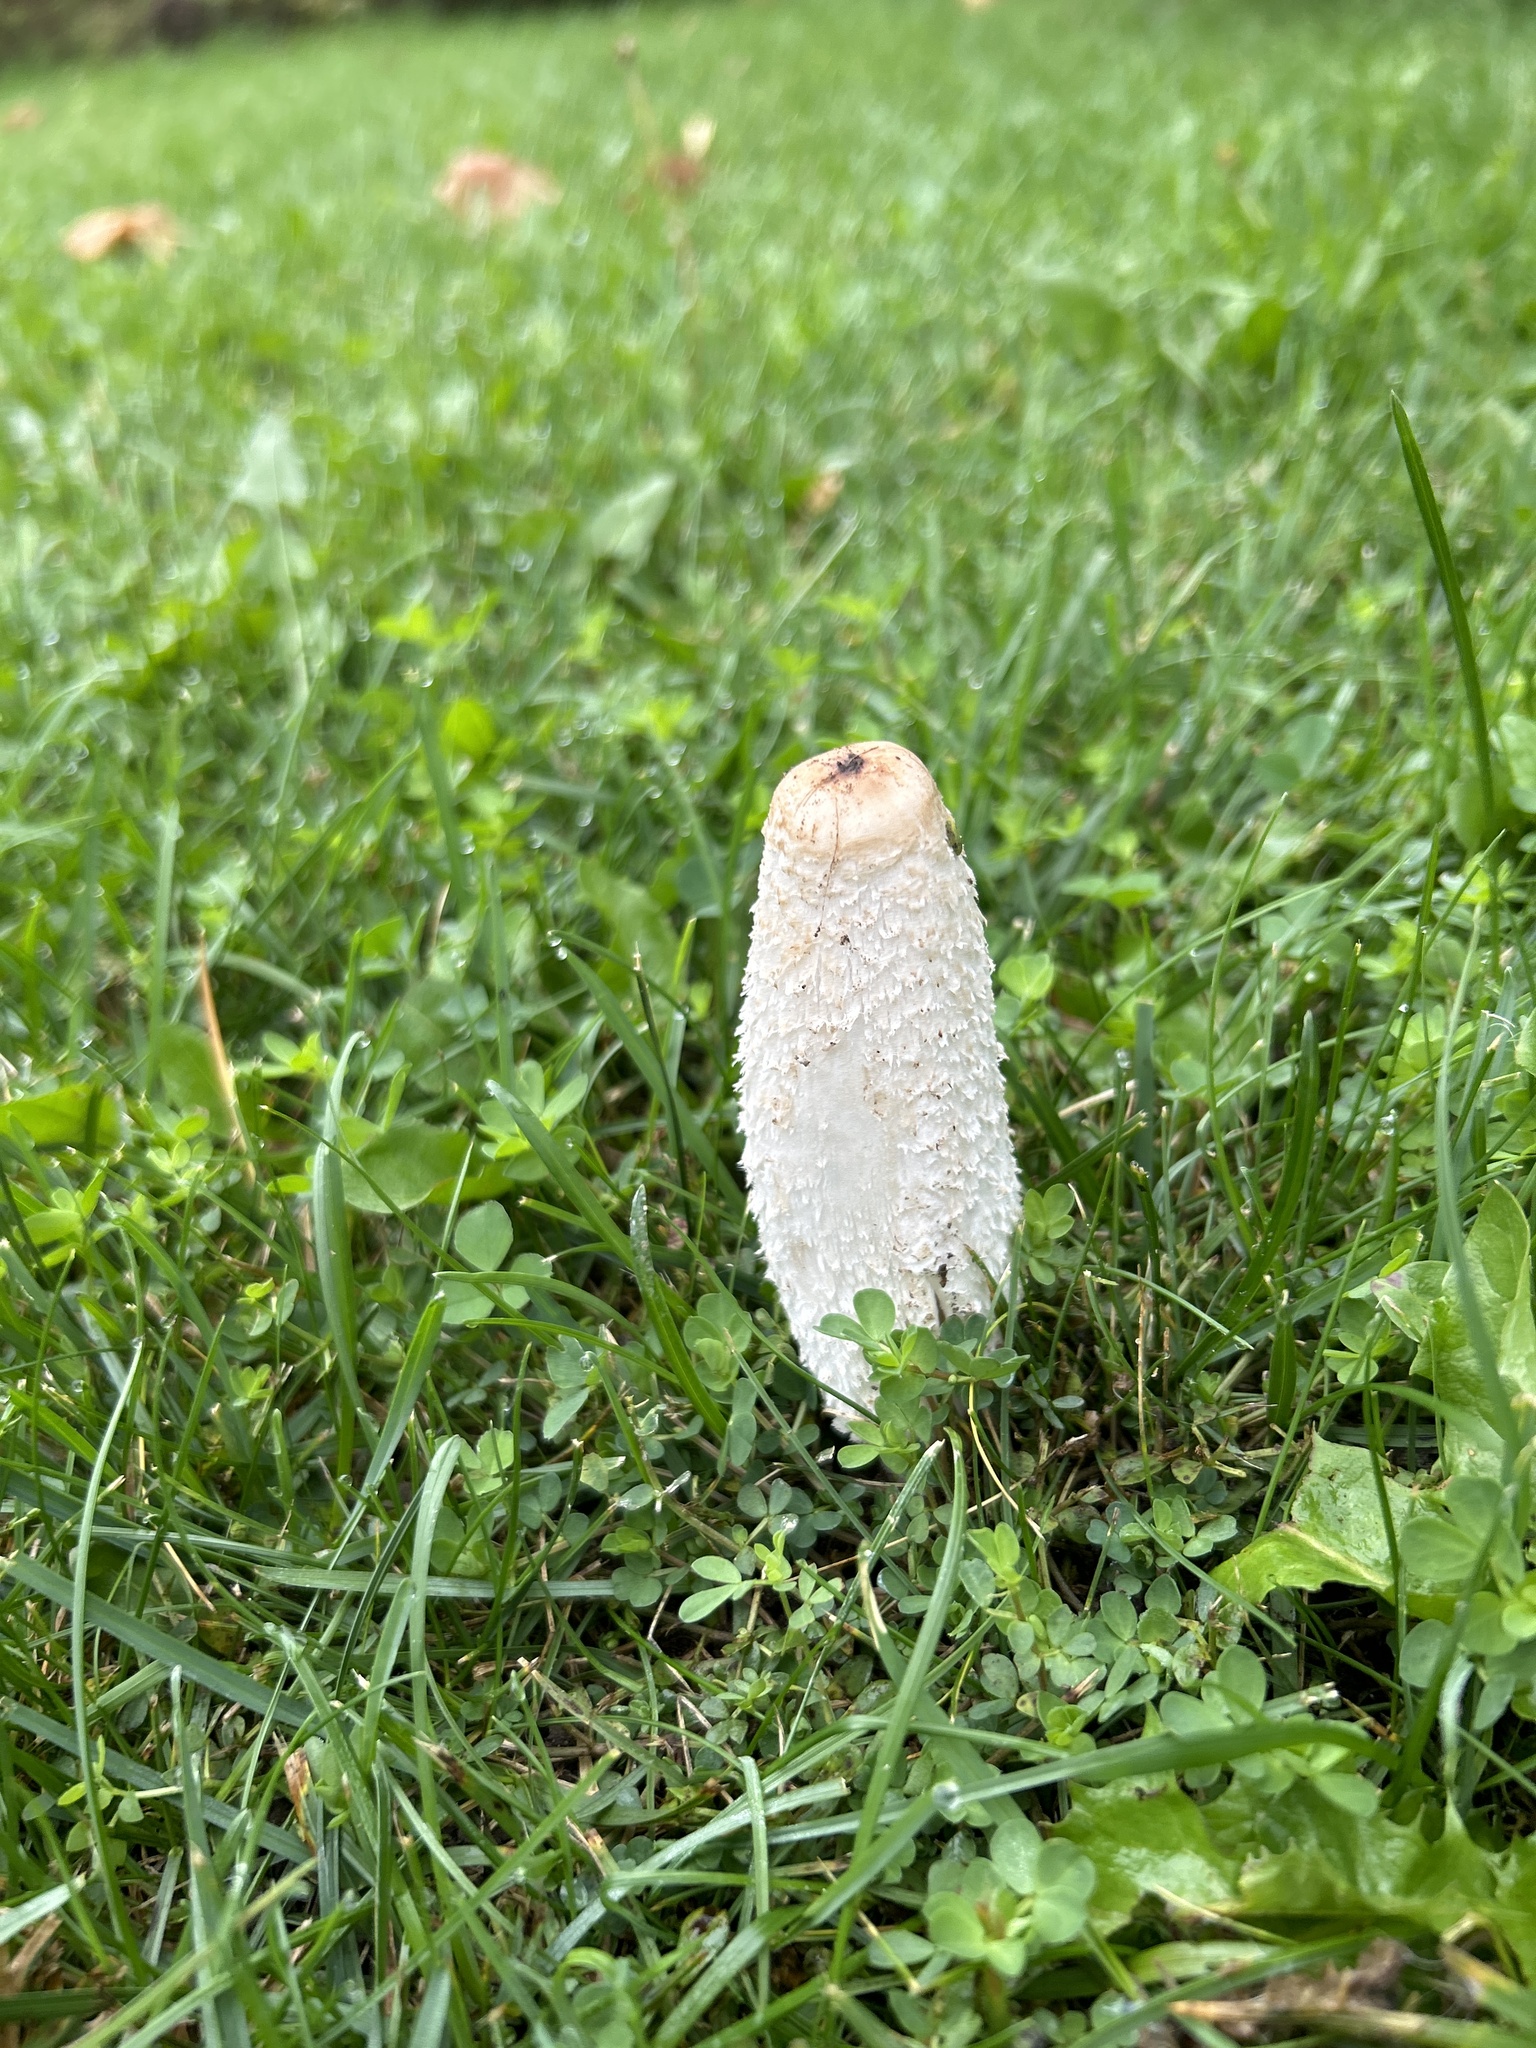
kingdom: Fungi
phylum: Basidiomycota
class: Agaricomycetes
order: Agaricales
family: Agaricaceae
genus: Coprinus
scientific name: Coprinus comatus
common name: Lawyer's wig
